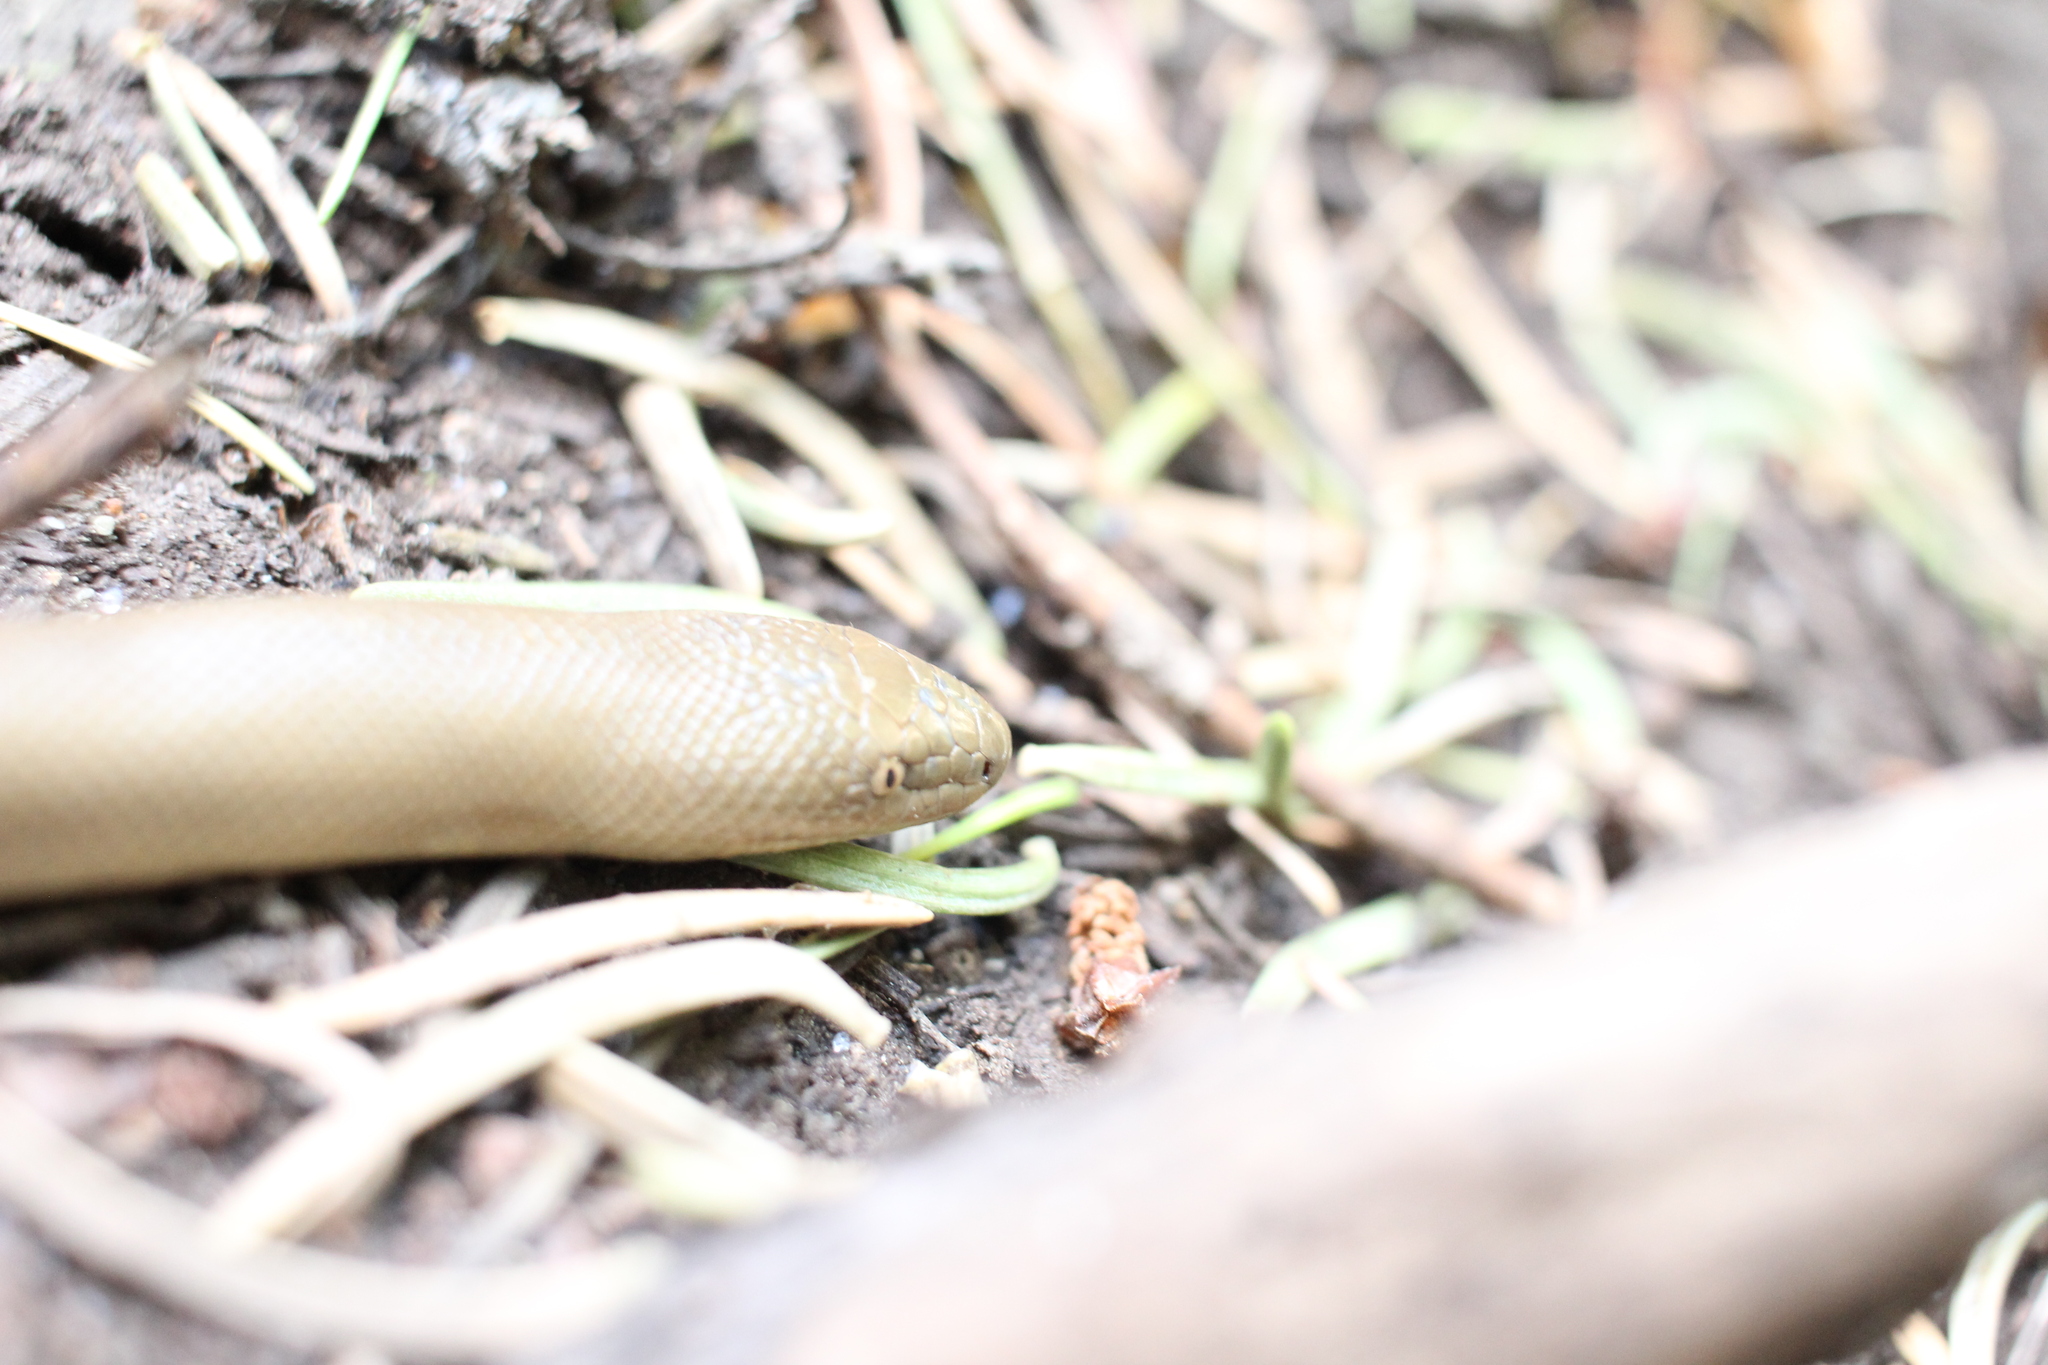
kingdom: Animalia
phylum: Chordata
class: Squamata
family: Boidae
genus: Charina
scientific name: Charina bottae
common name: Northern rubber boa
